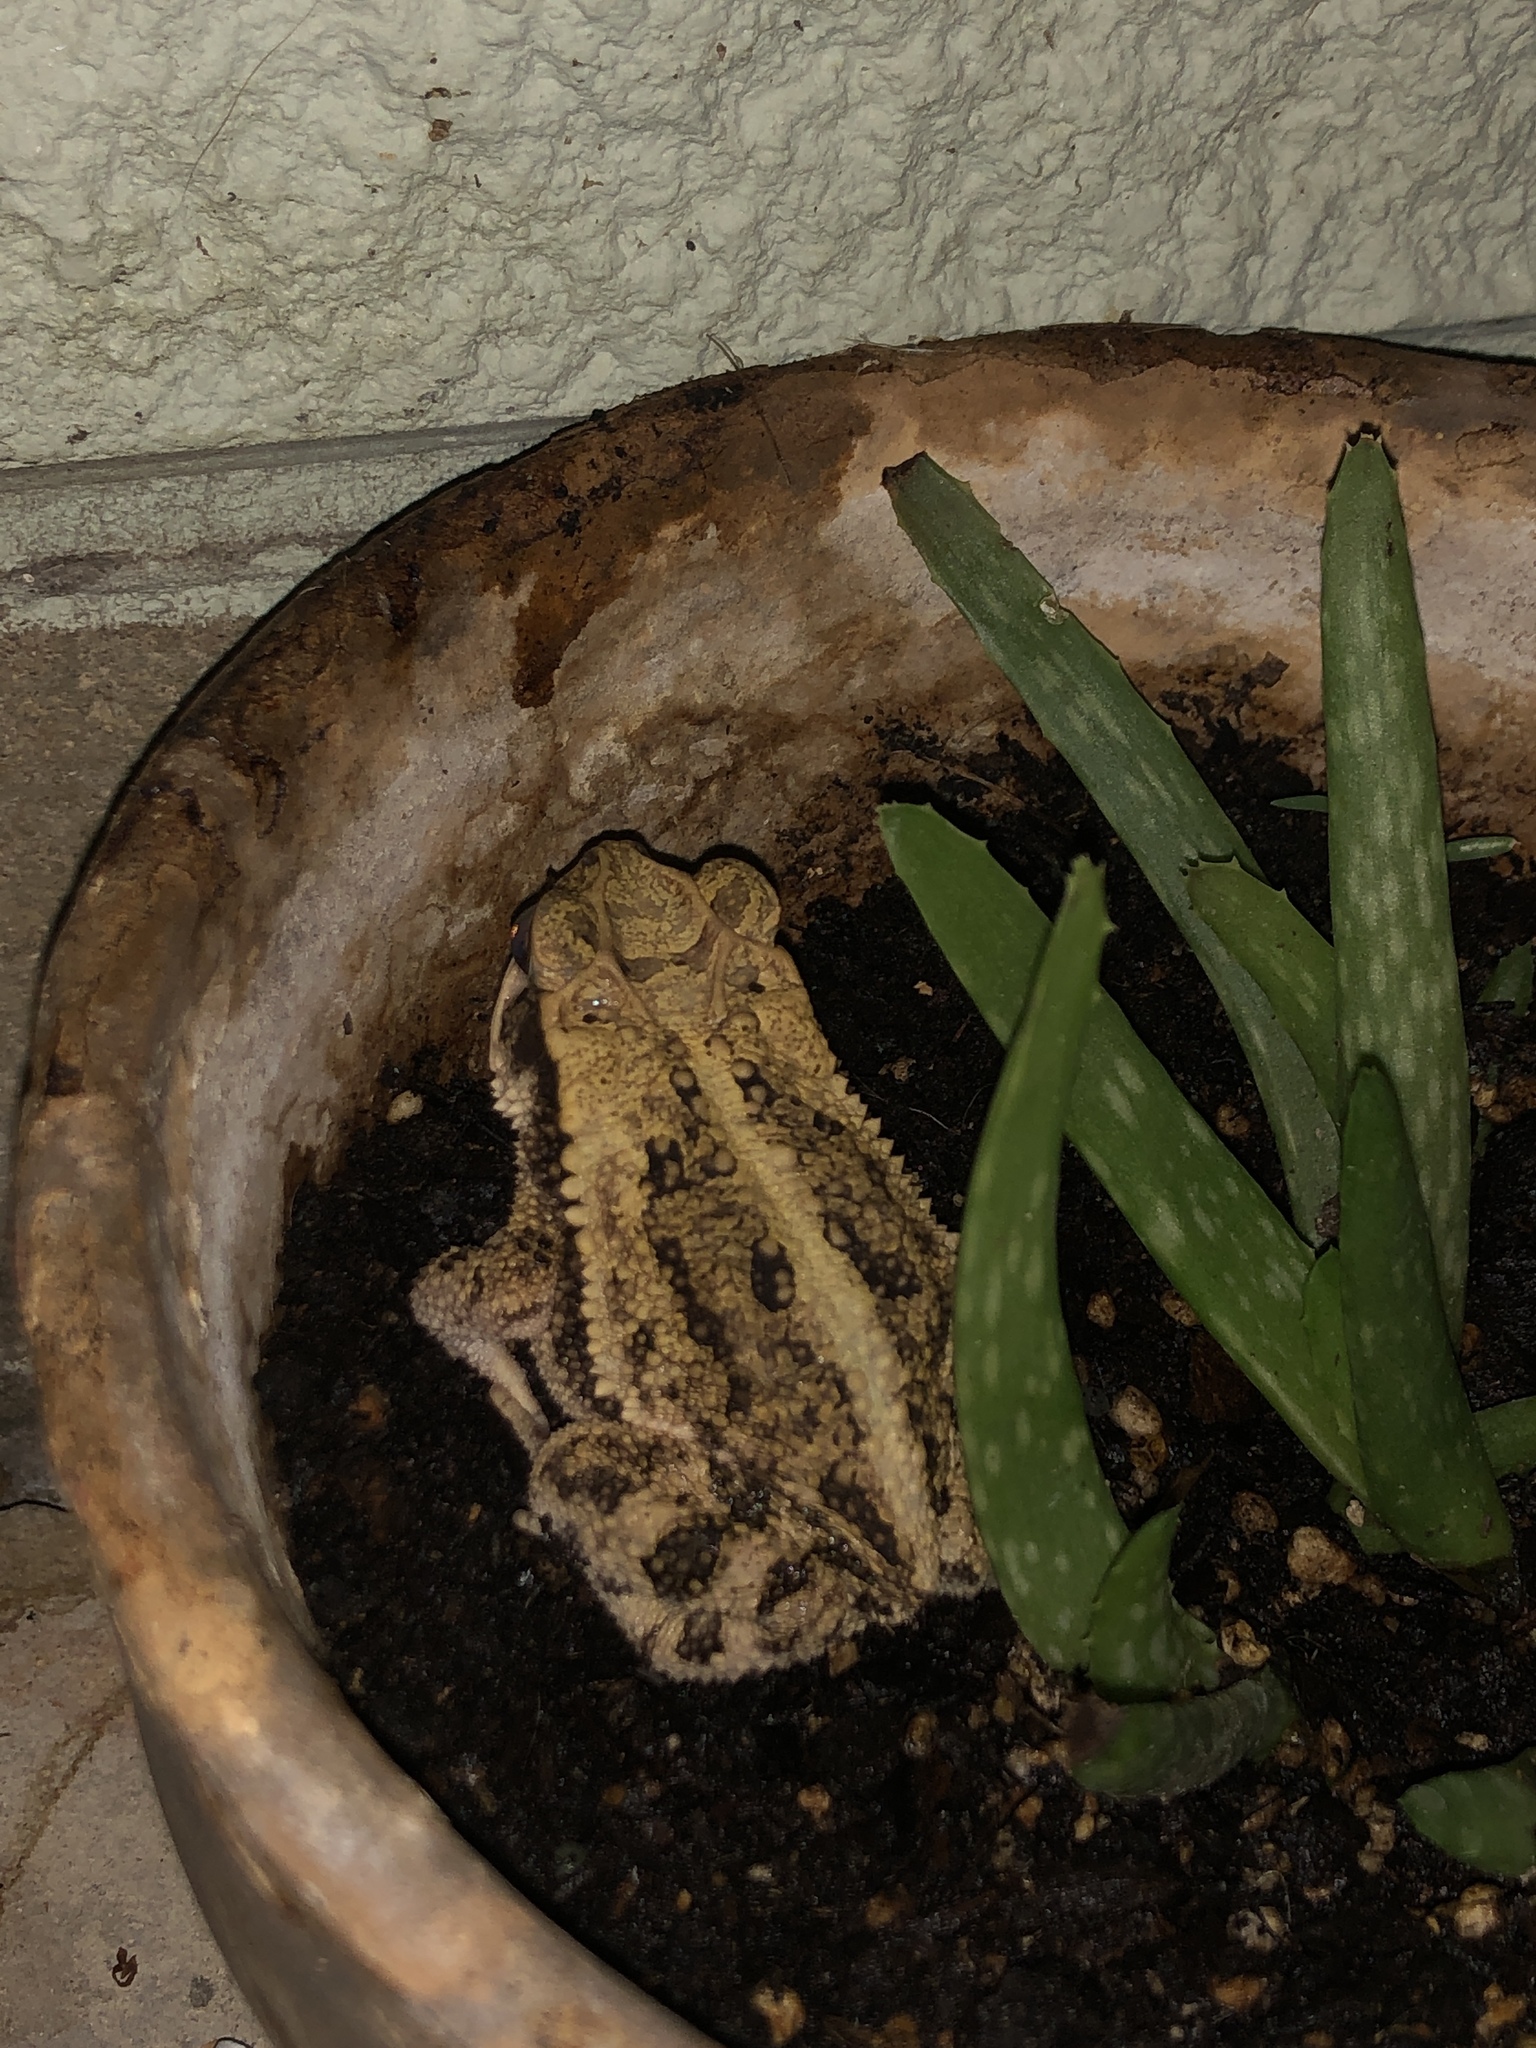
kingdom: Animalia
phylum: Chordata
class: Amphibia
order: Anura
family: Bufonidae
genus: Incilius
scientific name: Incilius nebulifer
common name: Gulf coast toad
